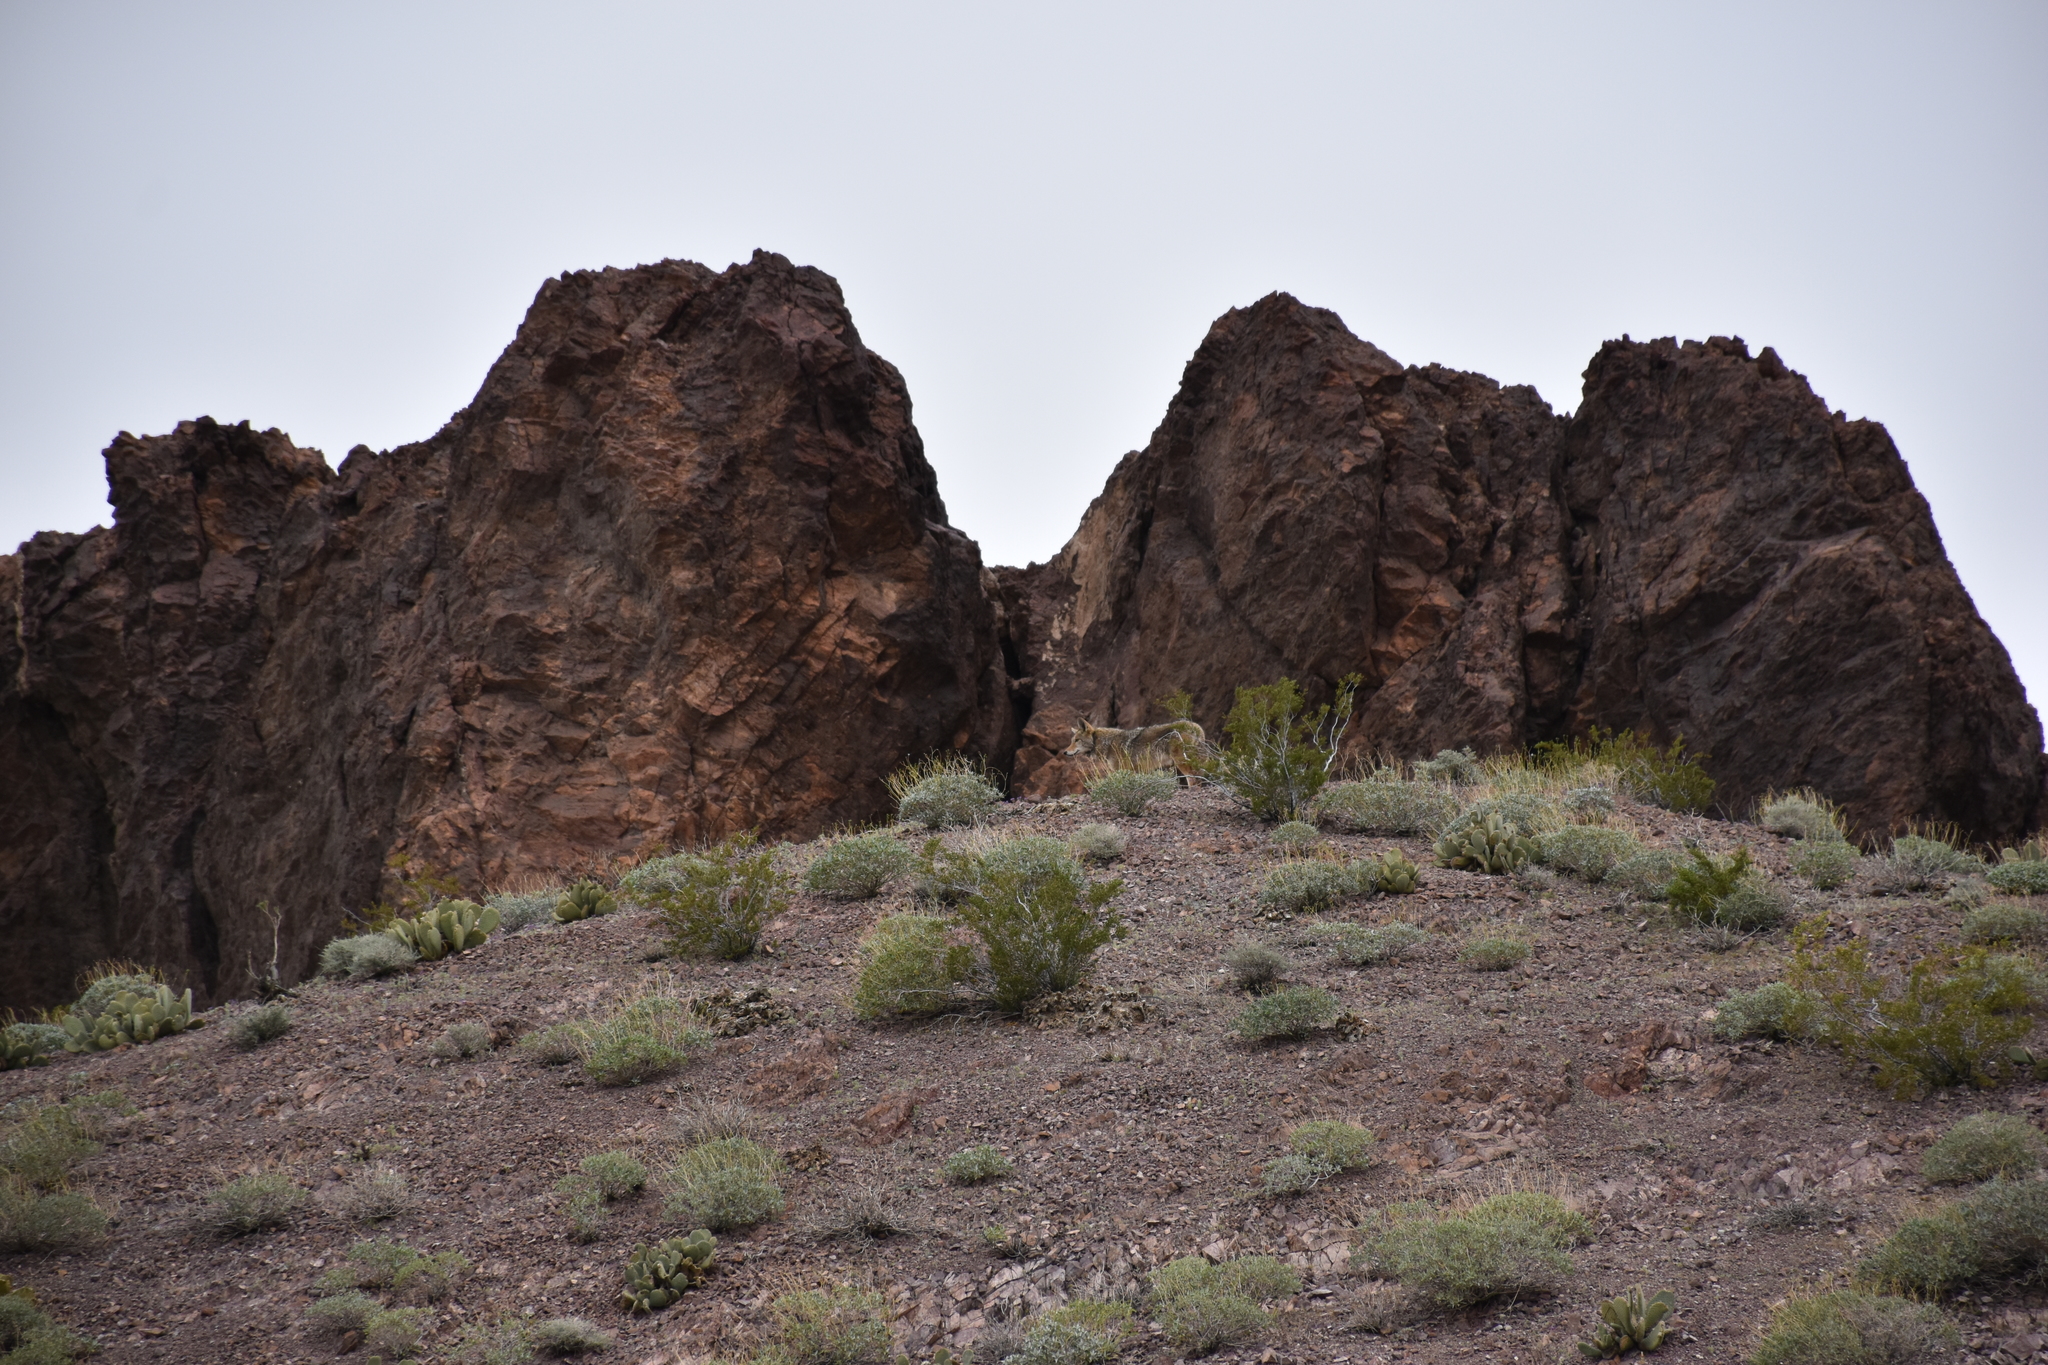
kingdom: Animalia
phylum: Chordata
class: Mammalia
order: Carnivora
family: Canidae
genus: Canis
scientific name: Canis latrans
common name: Coyote
